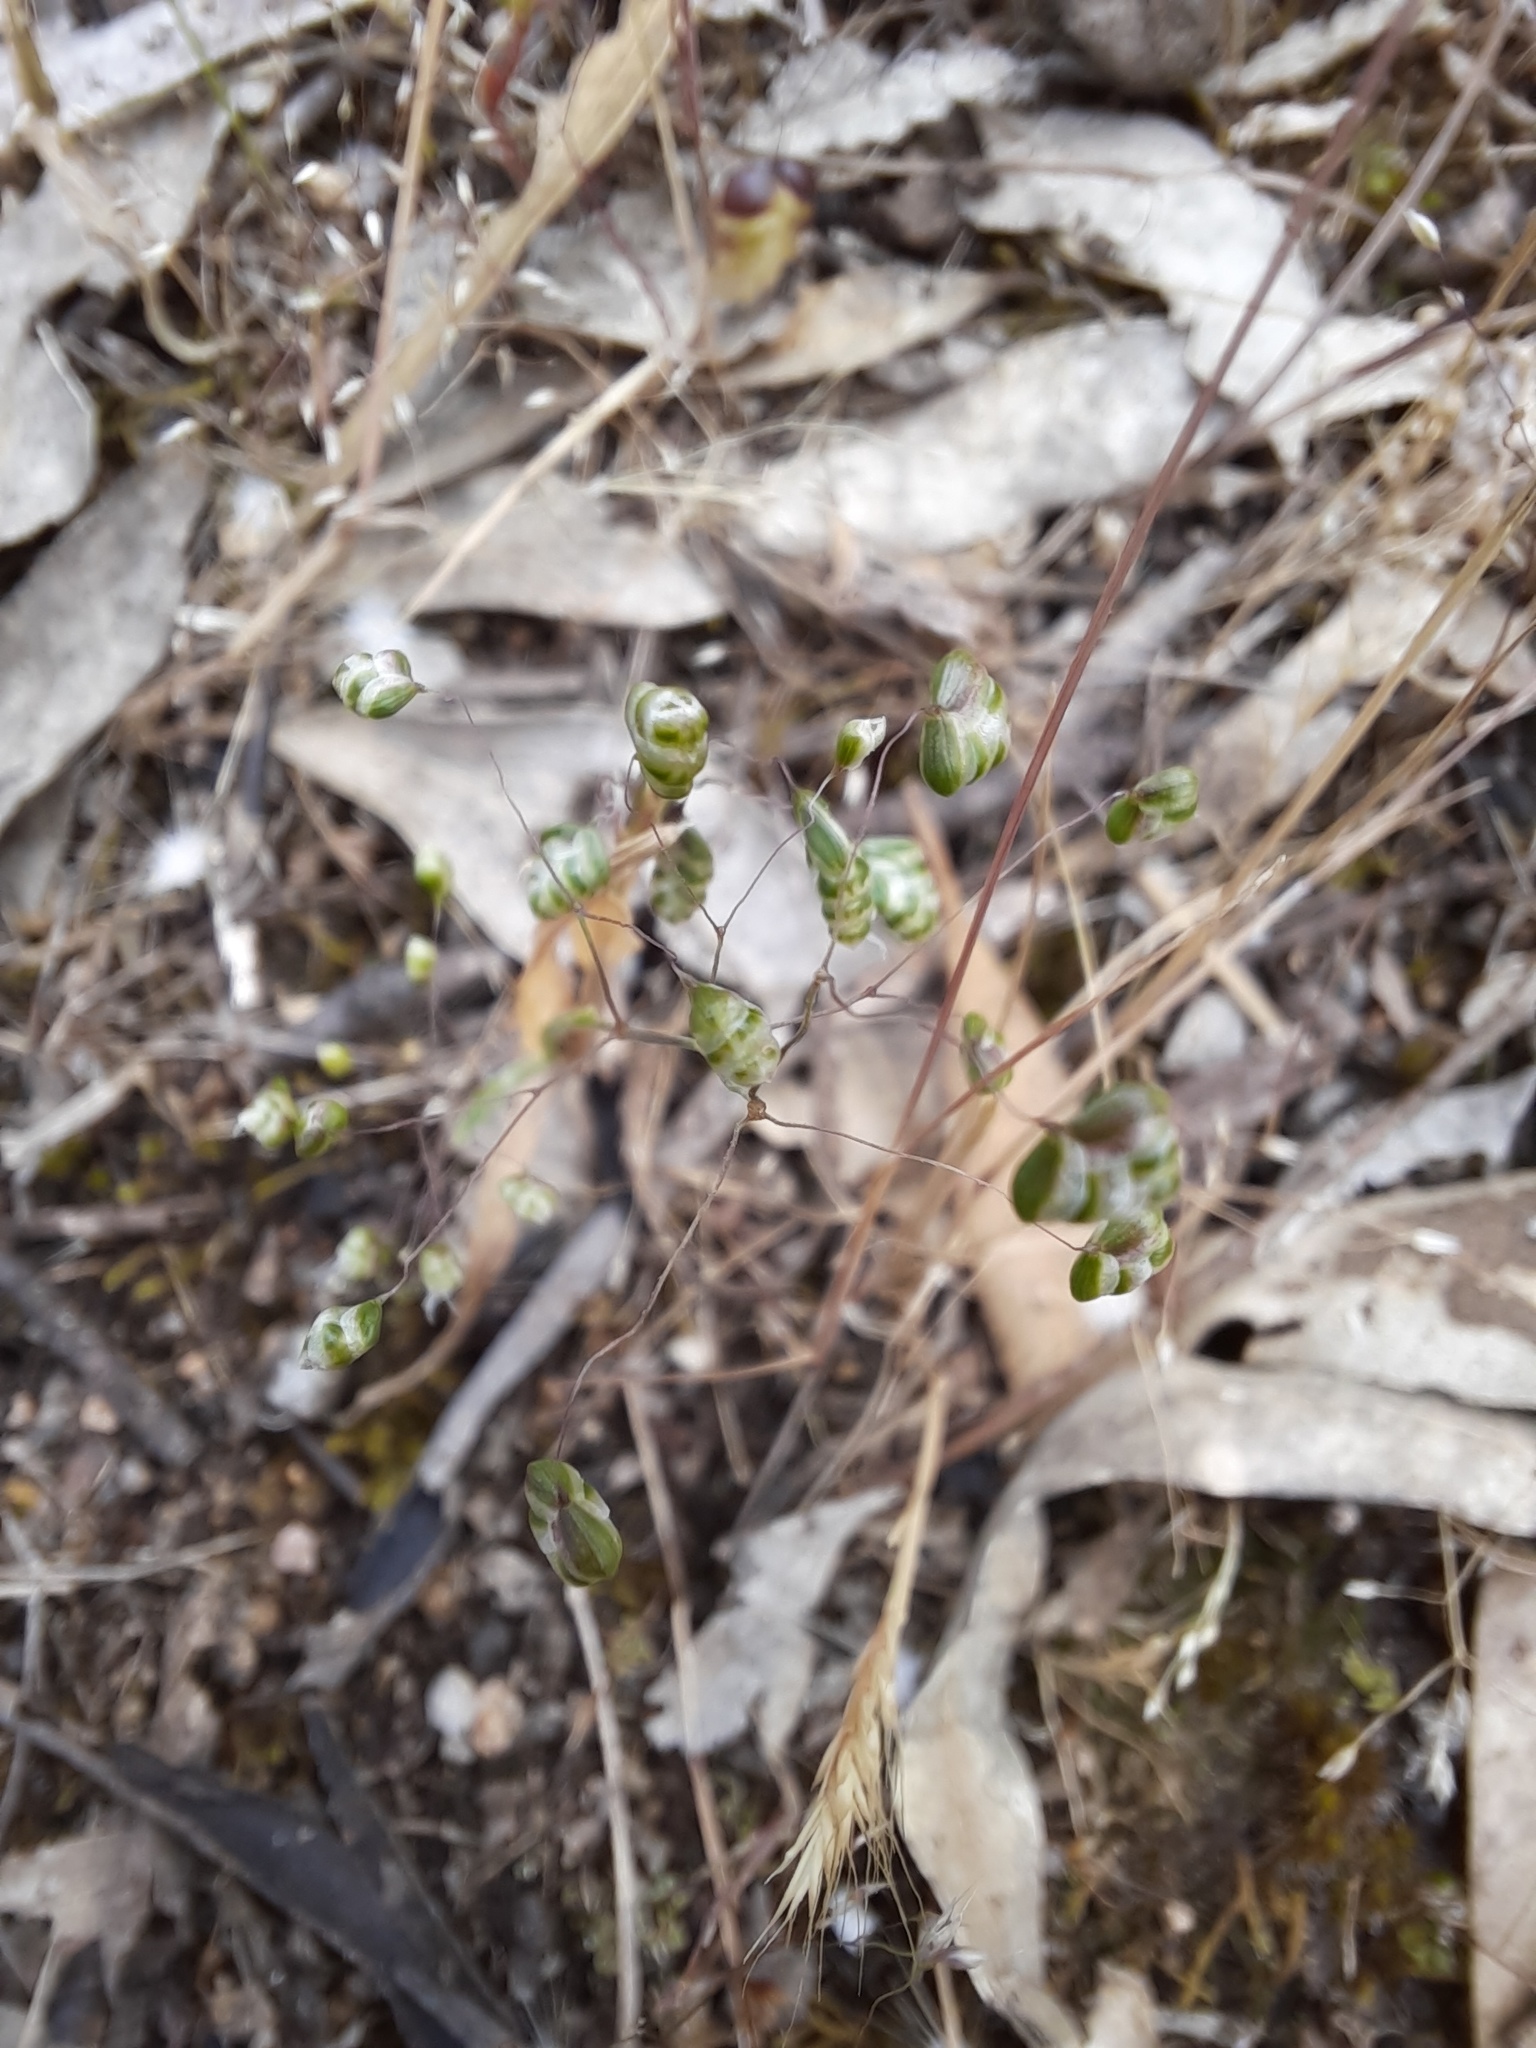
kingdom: Plantae
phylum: Tracheophyta
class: Liliopsida
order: Poales
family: Poaceae
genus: Briza
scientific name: Briza minor
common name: Lesser quaking-grass
